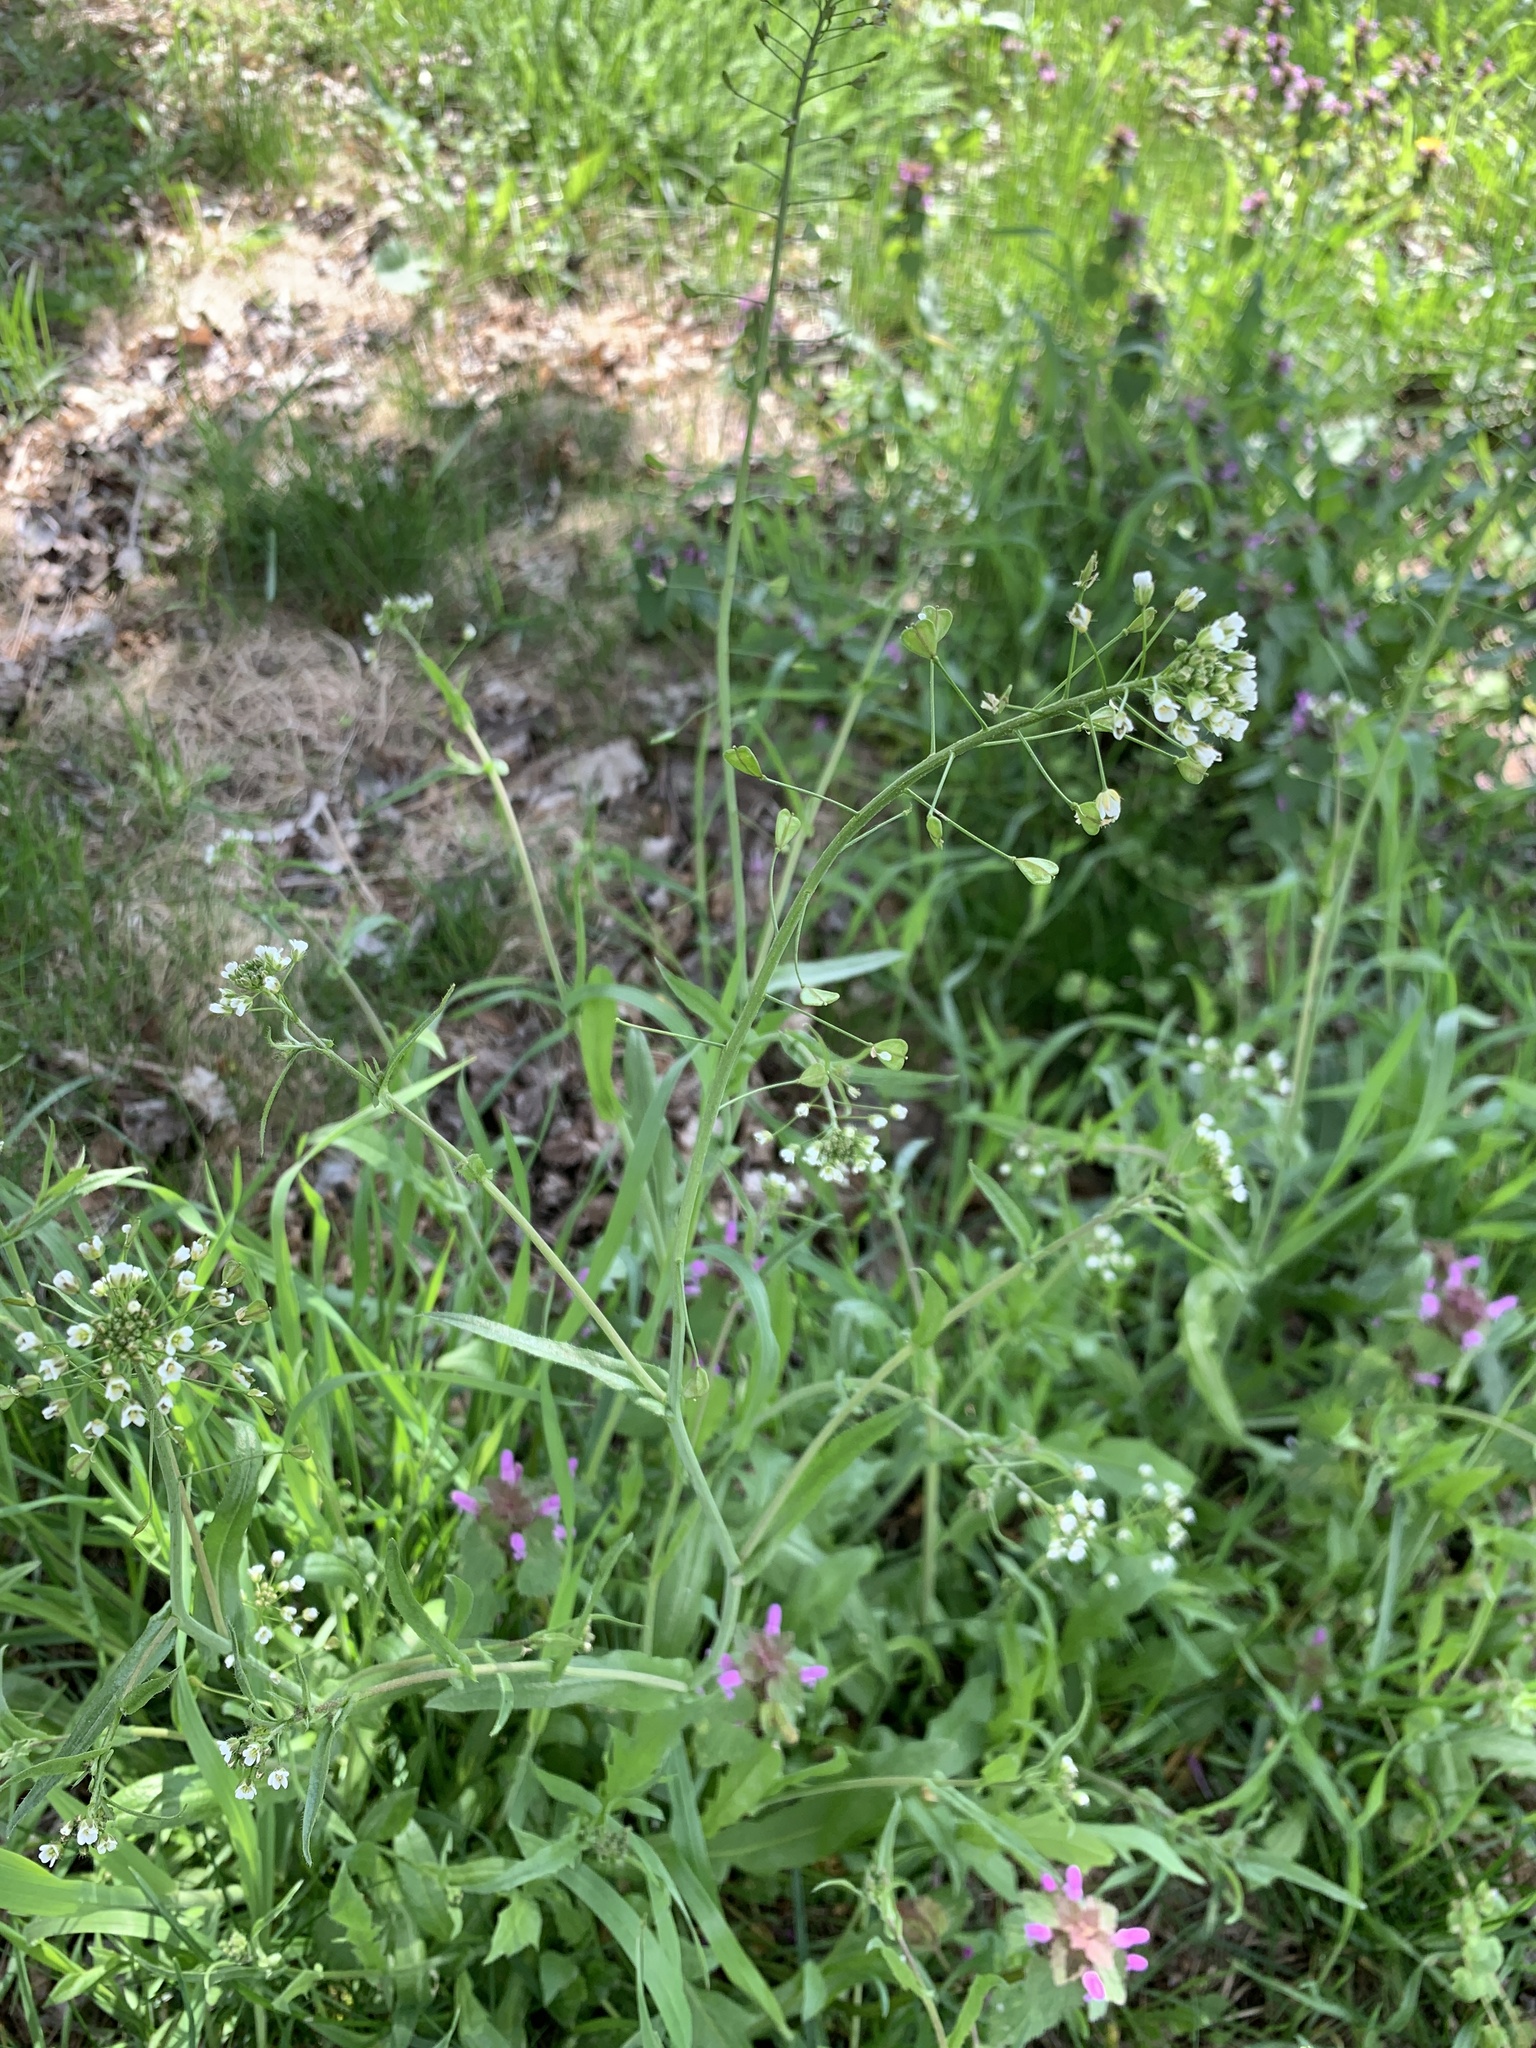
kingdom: Plantae
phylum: Tracheophyta
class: Magnoliopsida
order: Brassicales
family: Brassicaceae
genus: Capsella
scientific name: Capsella bursa-pastoris
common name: Shepherd's purse
